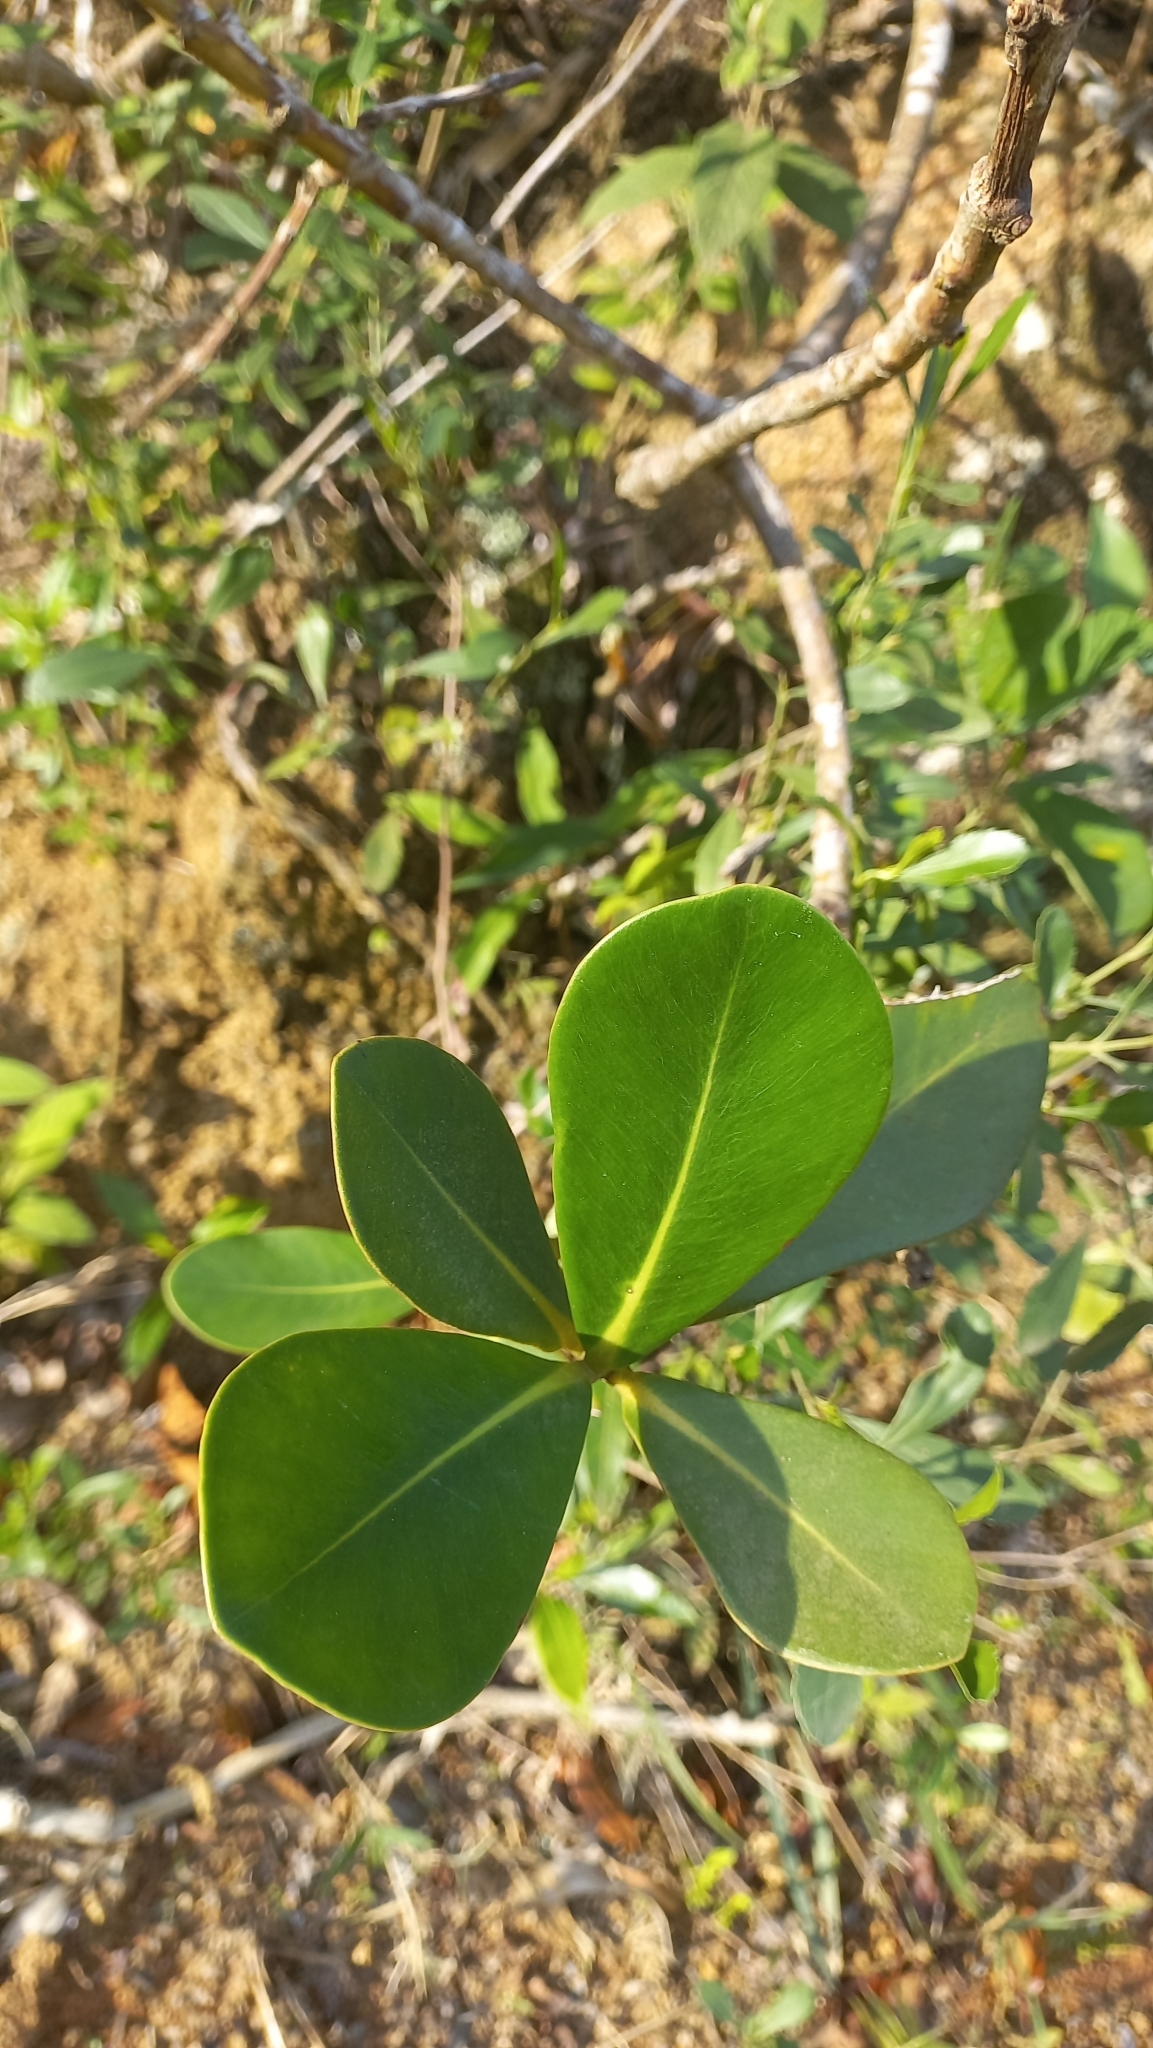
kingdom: Plantae
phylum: Tracheophyta
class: Magnoliopsida
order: Malpighiales
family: Clusiaceae
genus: Clusia
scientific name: Clusia criuva
